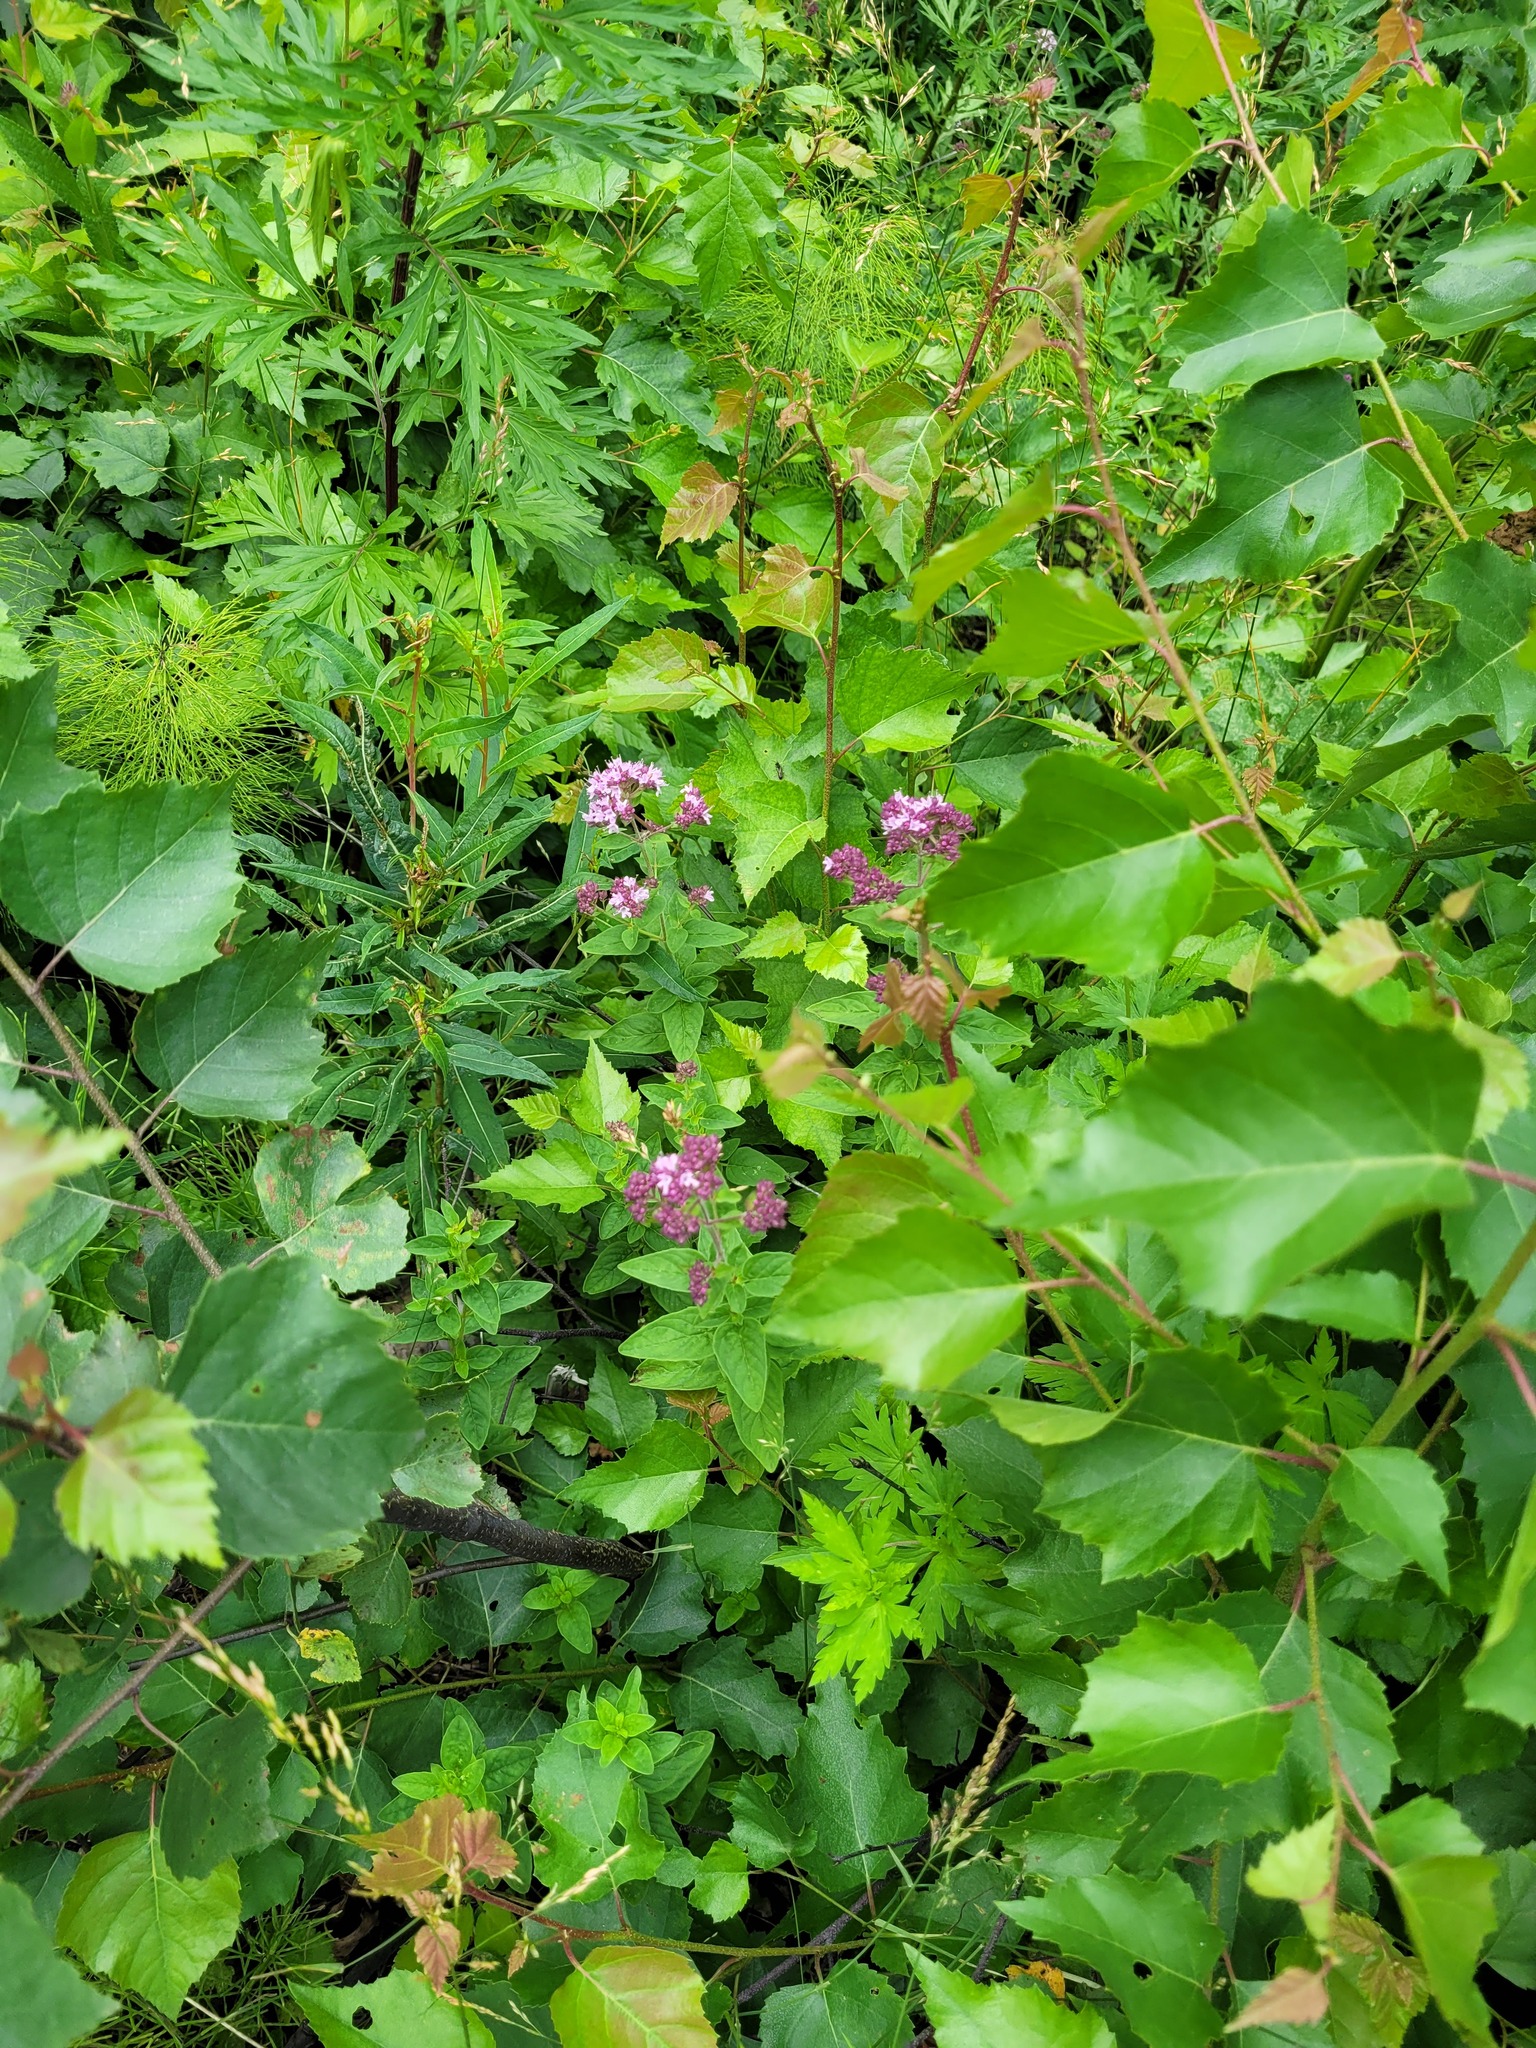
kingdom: Plantae
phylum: Tracheophyta
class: Magnoliopsida
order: Lamiales
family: Lamiaceae
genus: Origanum
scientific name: Origanum vulgare
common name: Wild marjoram
